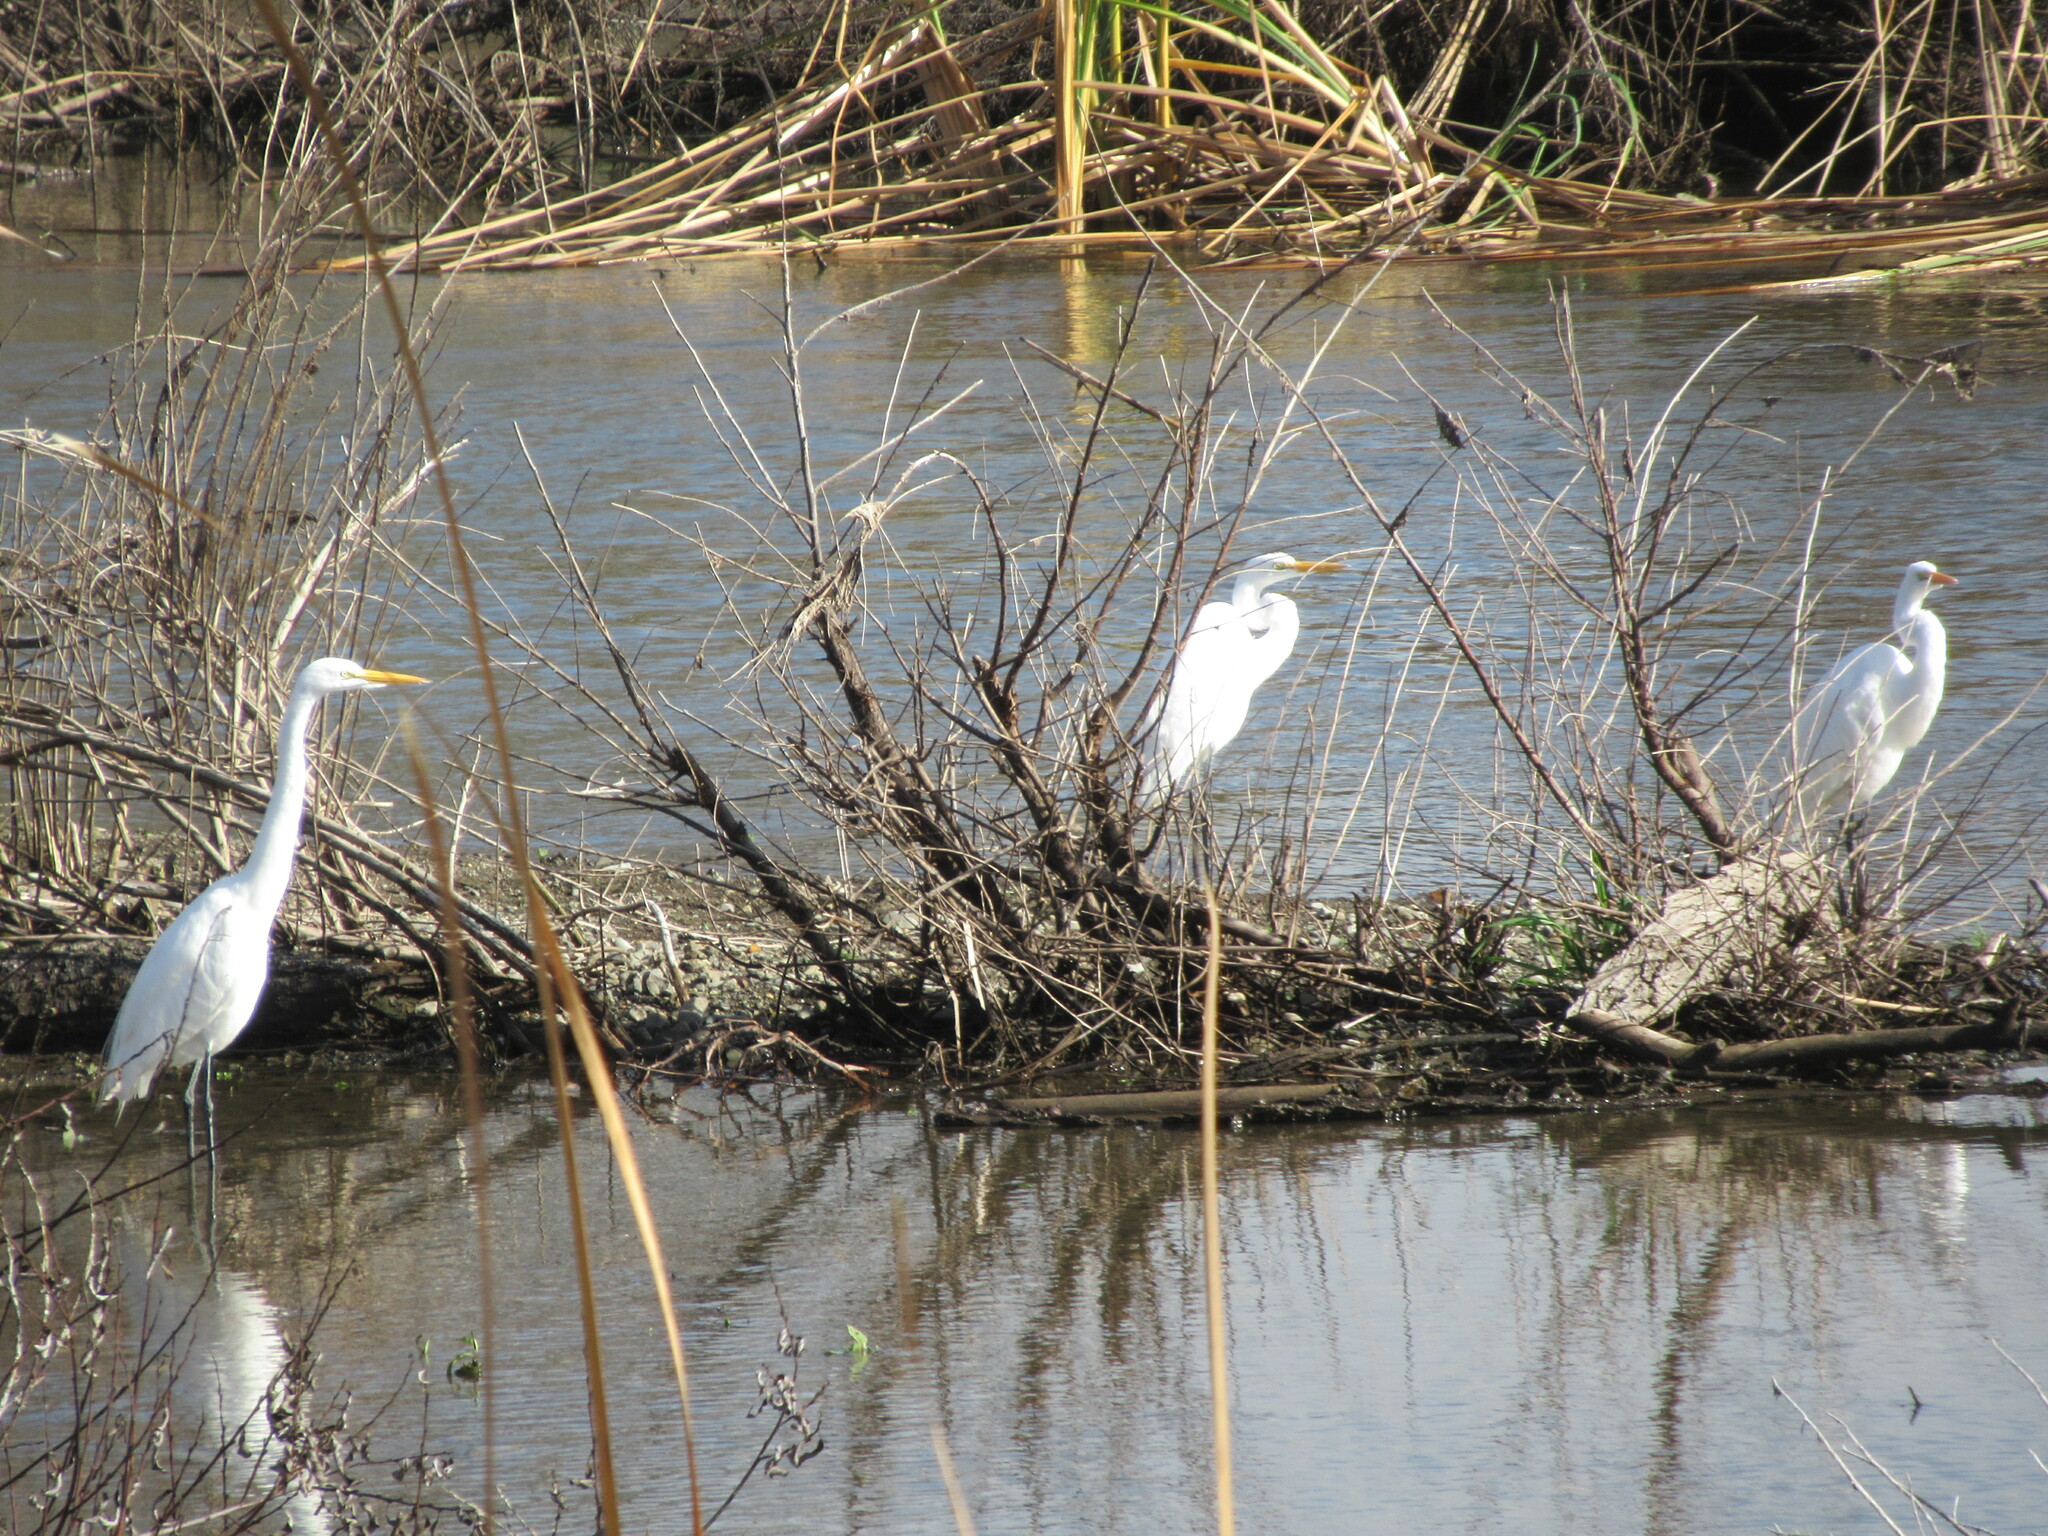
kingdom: Animalia
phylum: Chordata
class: Aves
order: Pelecaniformes
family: Ardeidae
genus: Ardea
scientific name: Ardea alba
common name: Great egret
